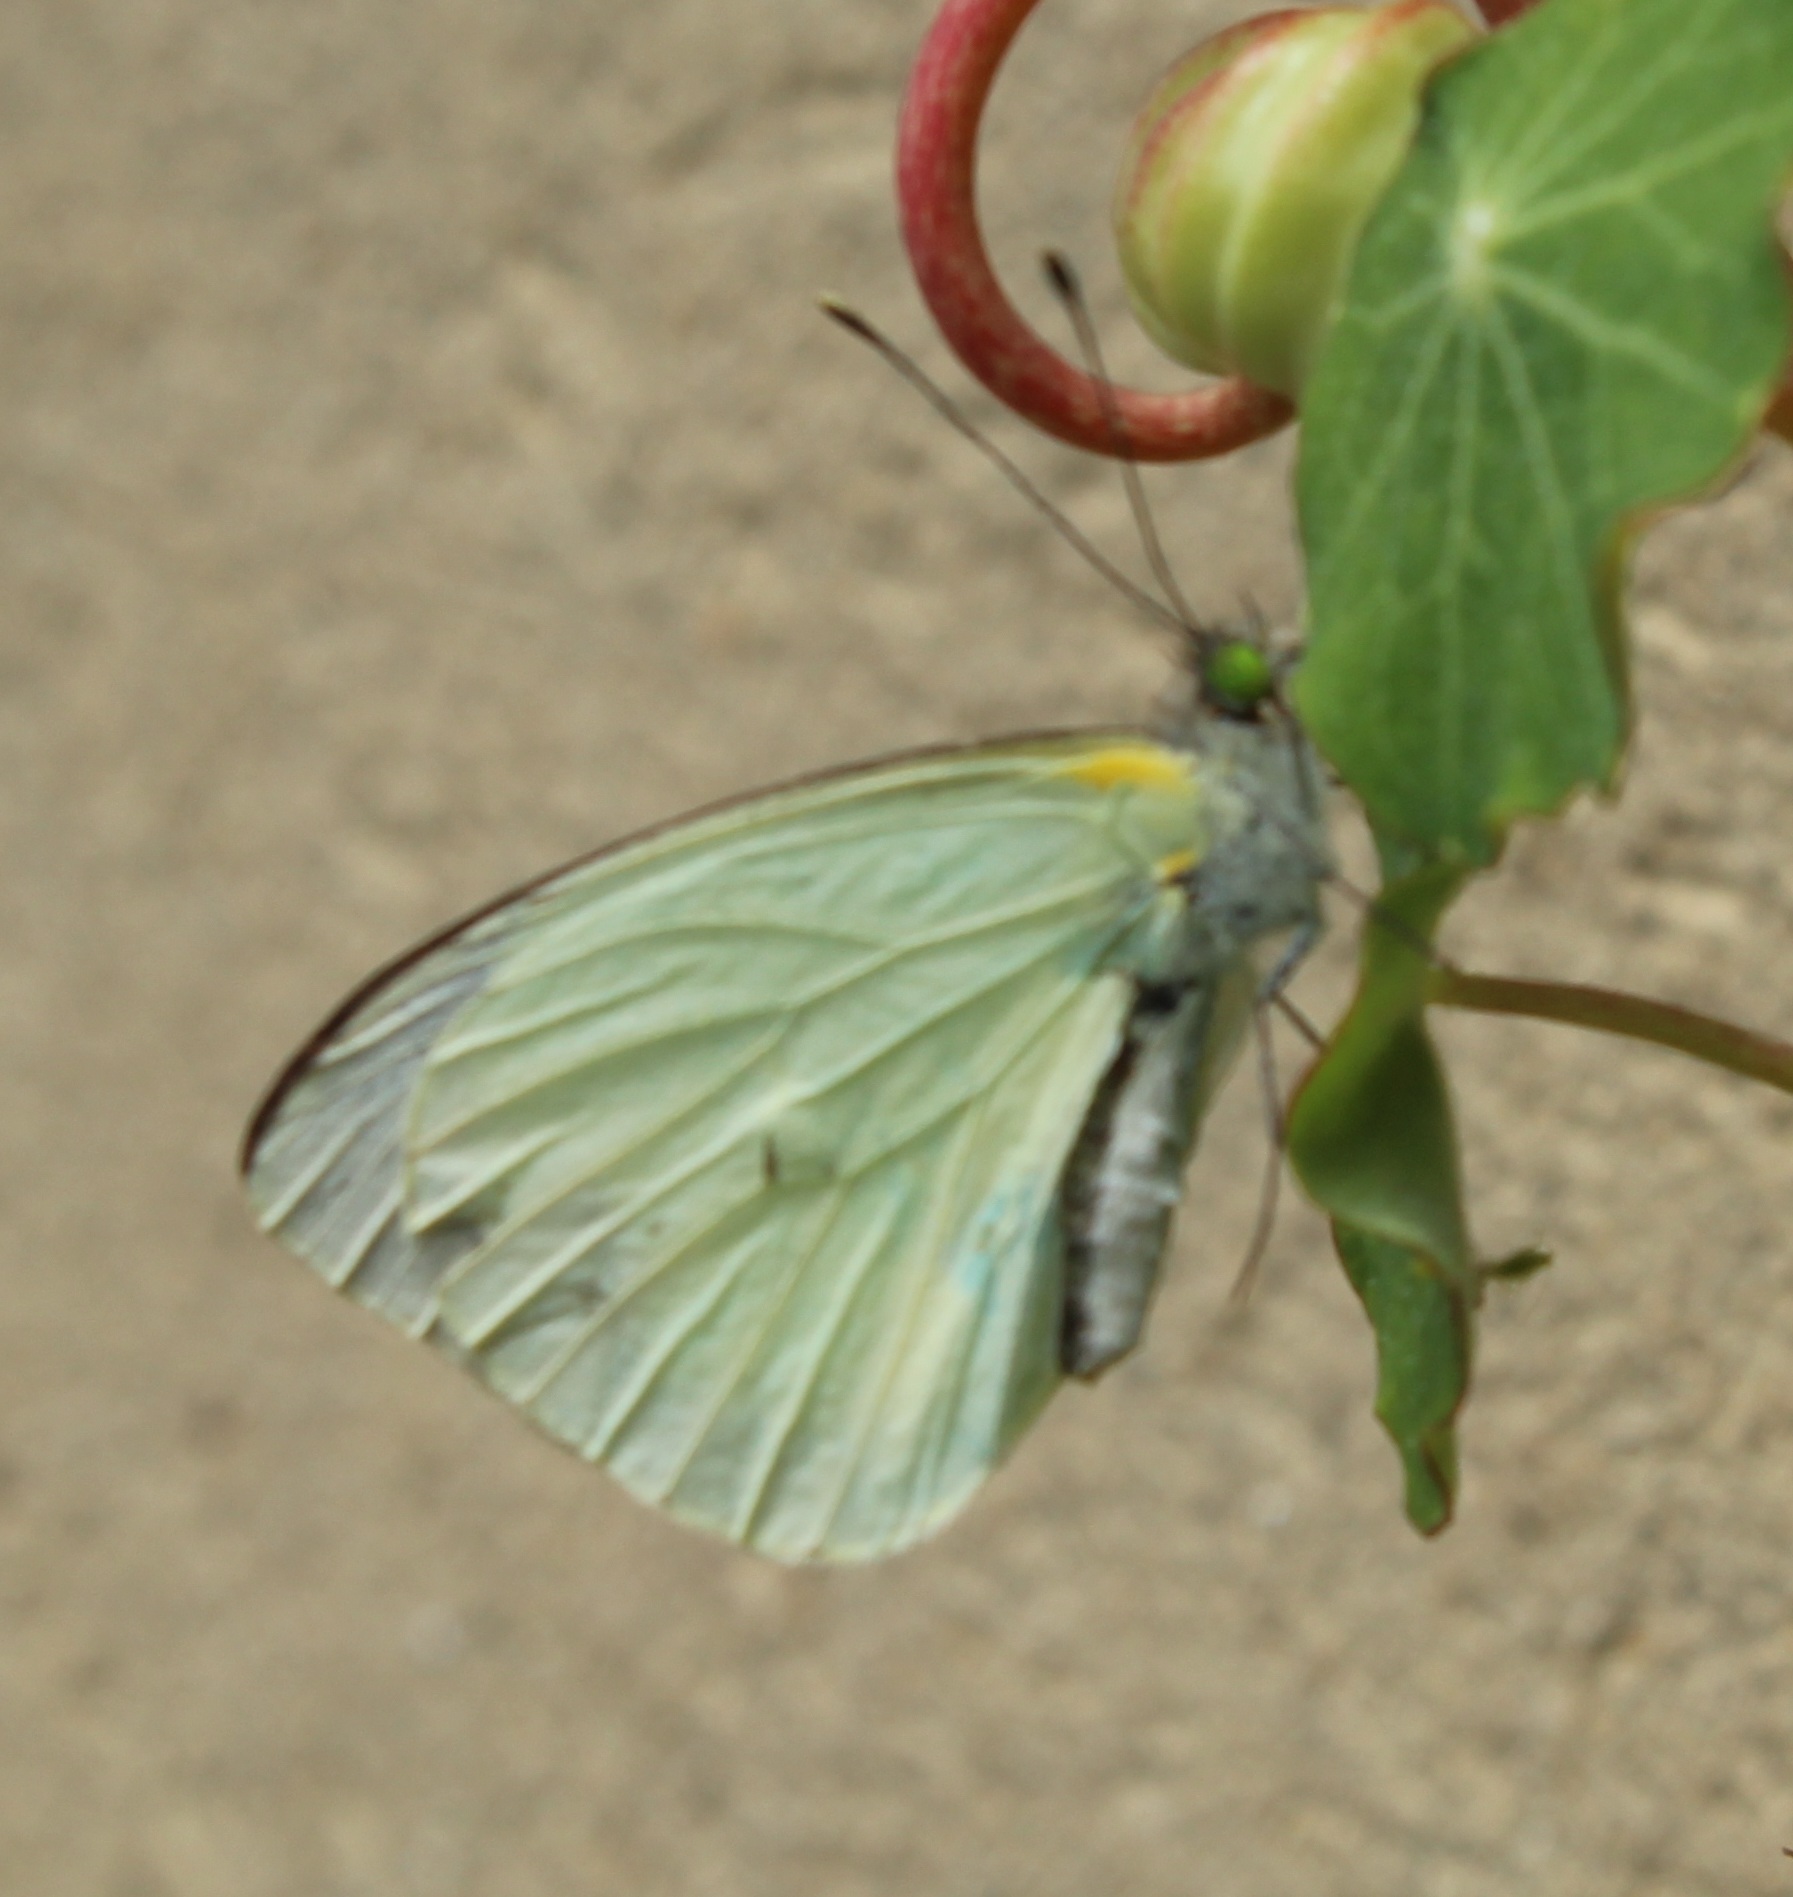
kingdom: Animalia
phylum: Arthropoda
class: Insecta
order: Lepidoptera
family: Pieridae
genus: Leptophobia
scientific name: Leptophobia aripa
